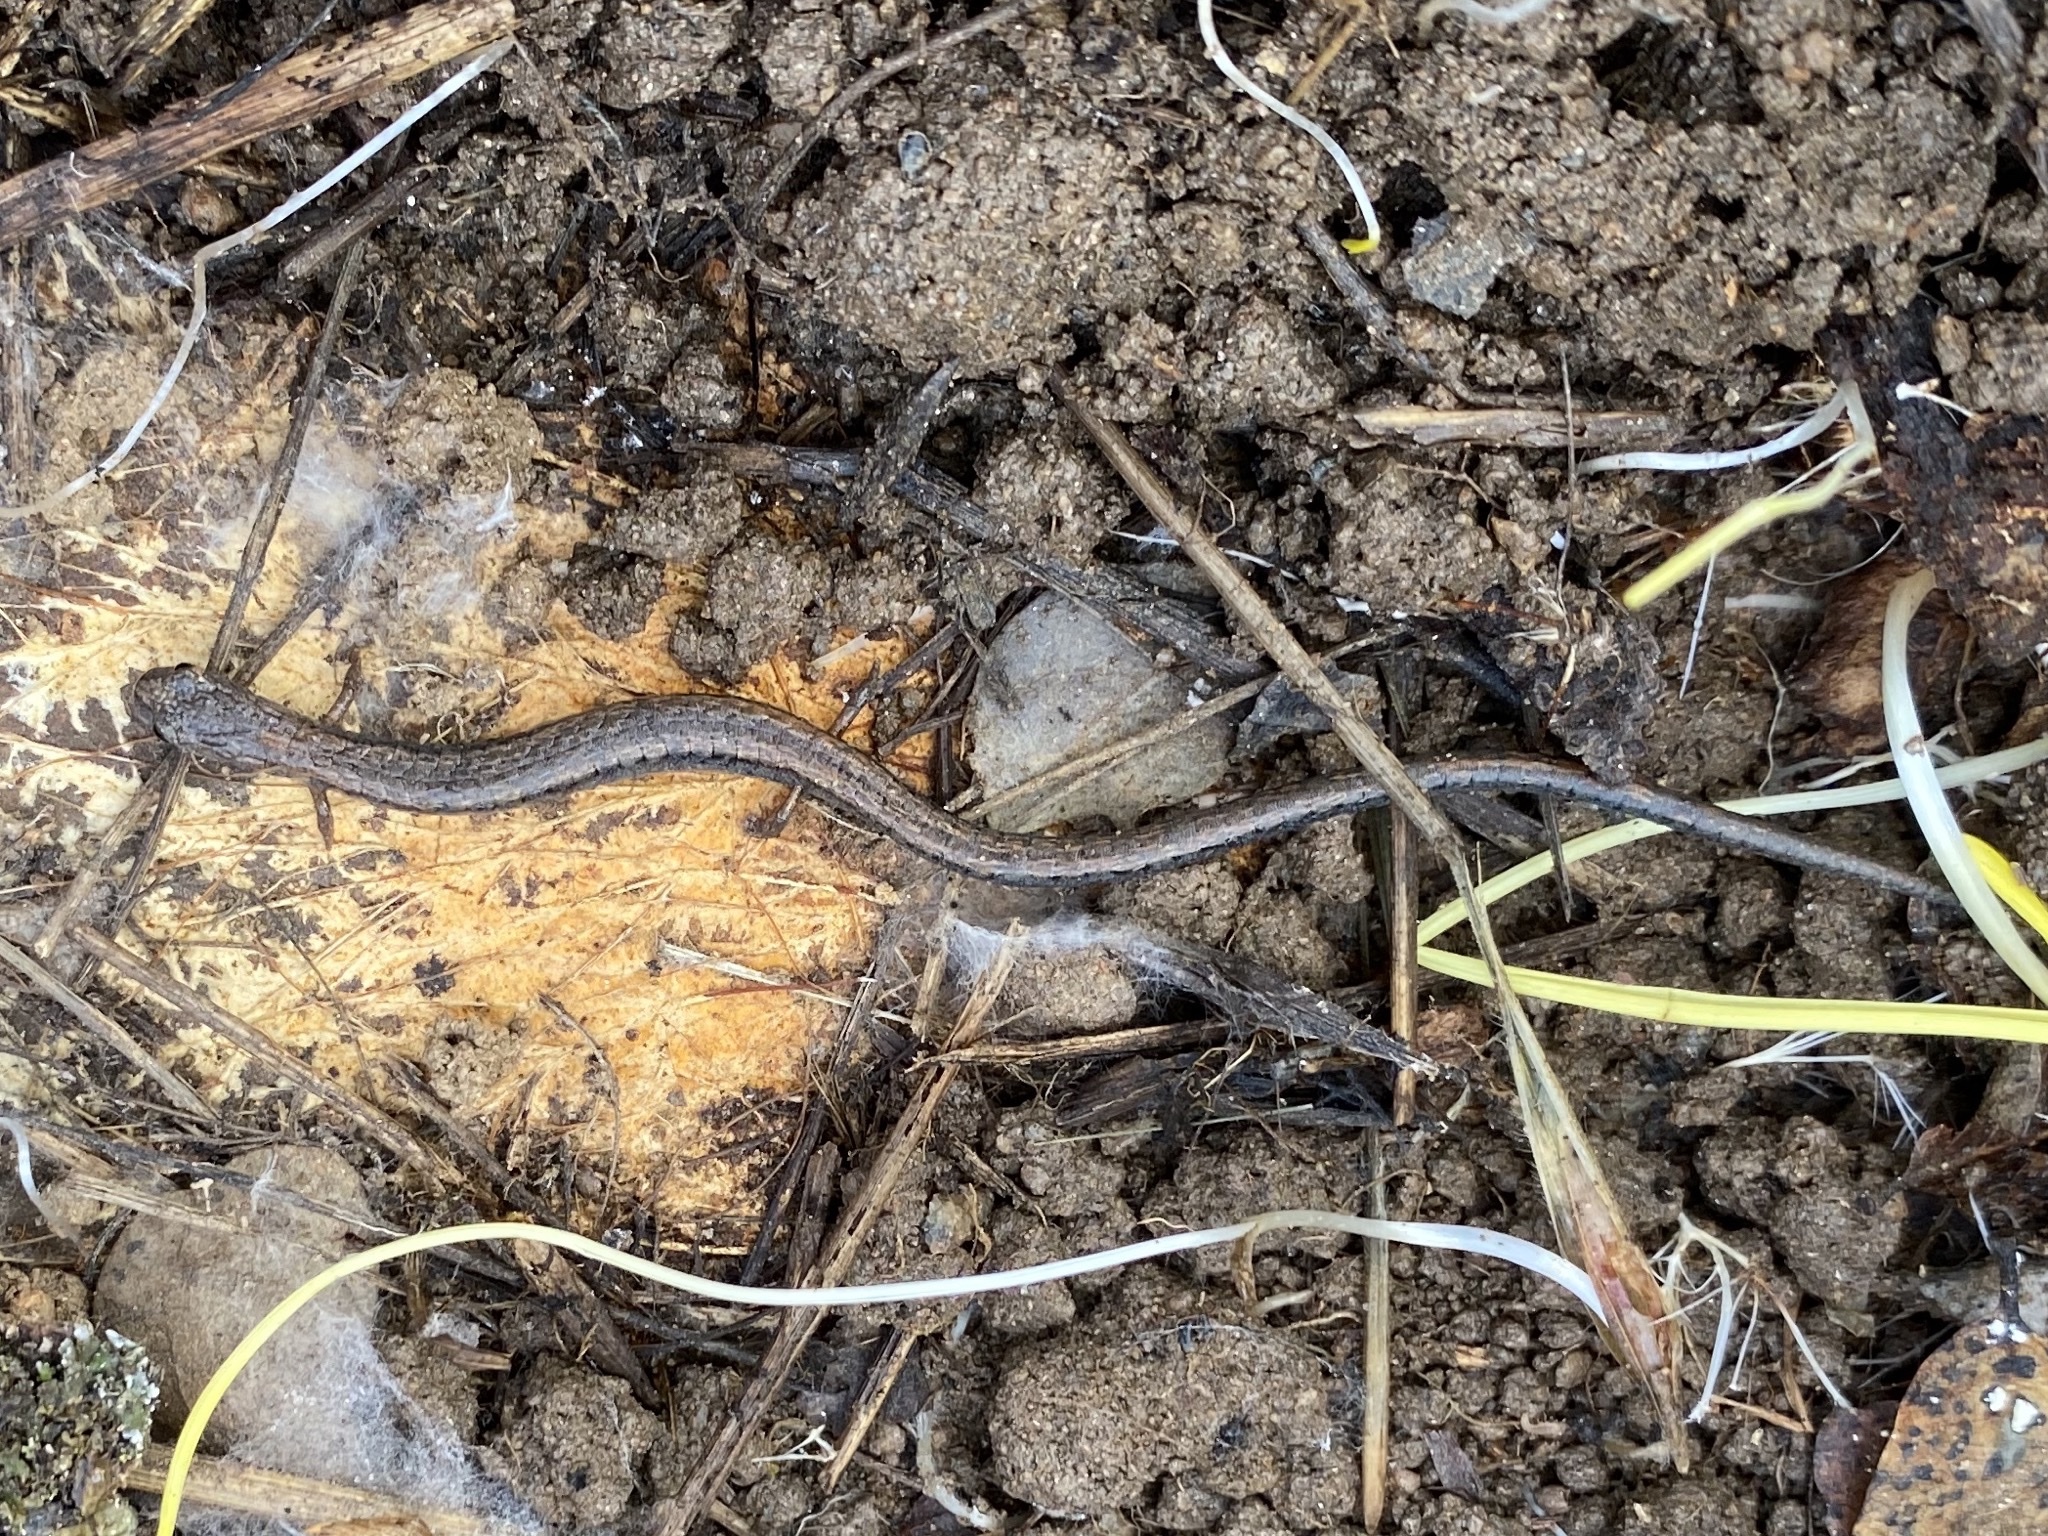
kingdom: Animalia
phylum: Chordata
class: Amphibia
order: Caudata
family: Plethodontidae
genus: Batrachoseps
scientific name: Batrachoseps gregarius
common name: Gregarious slender salamander
